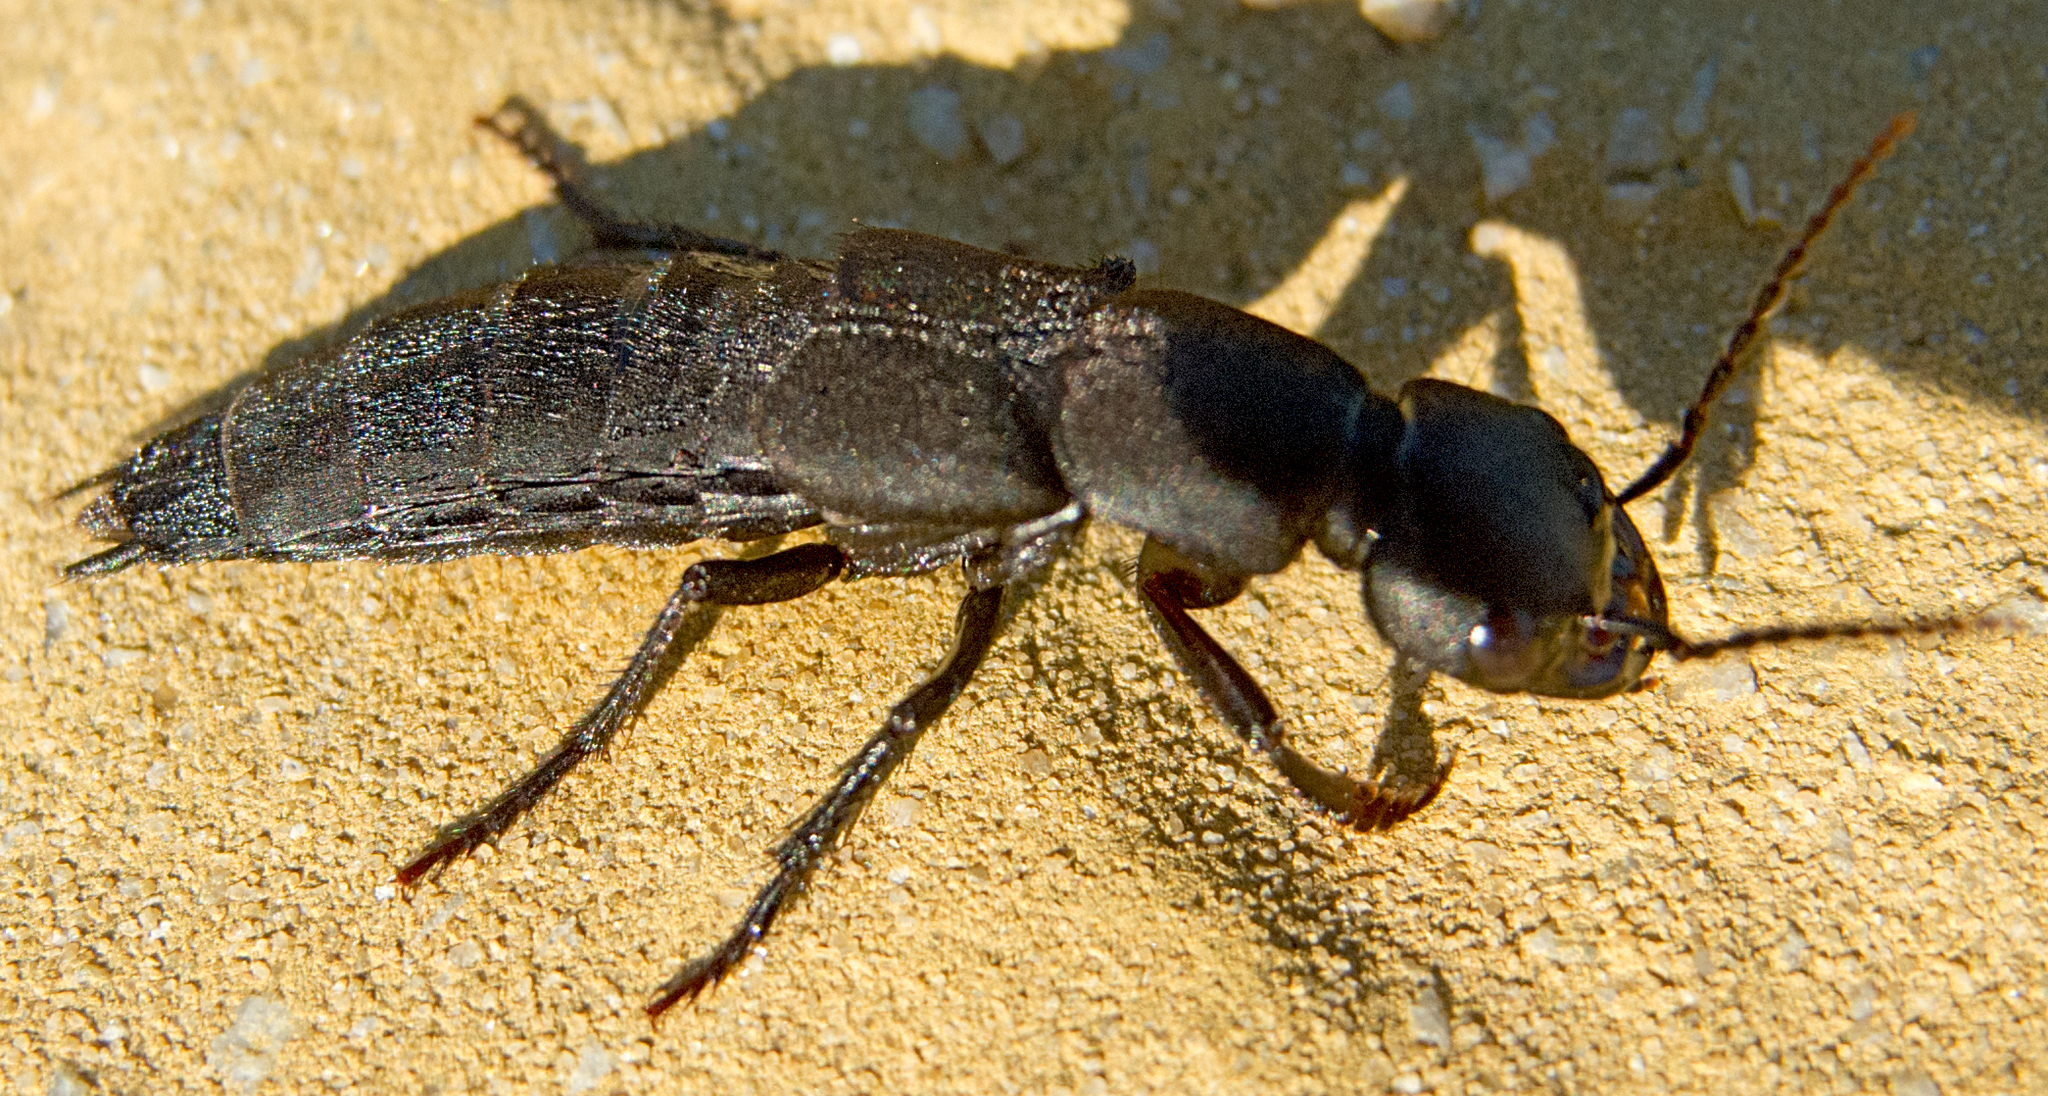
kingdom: Animalia
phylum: Arthropoda
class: Insecta
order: Coleoptera
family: Staphylinidae
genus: Ocypus
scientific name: Ocypus olens
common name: Devil's coach-horse
